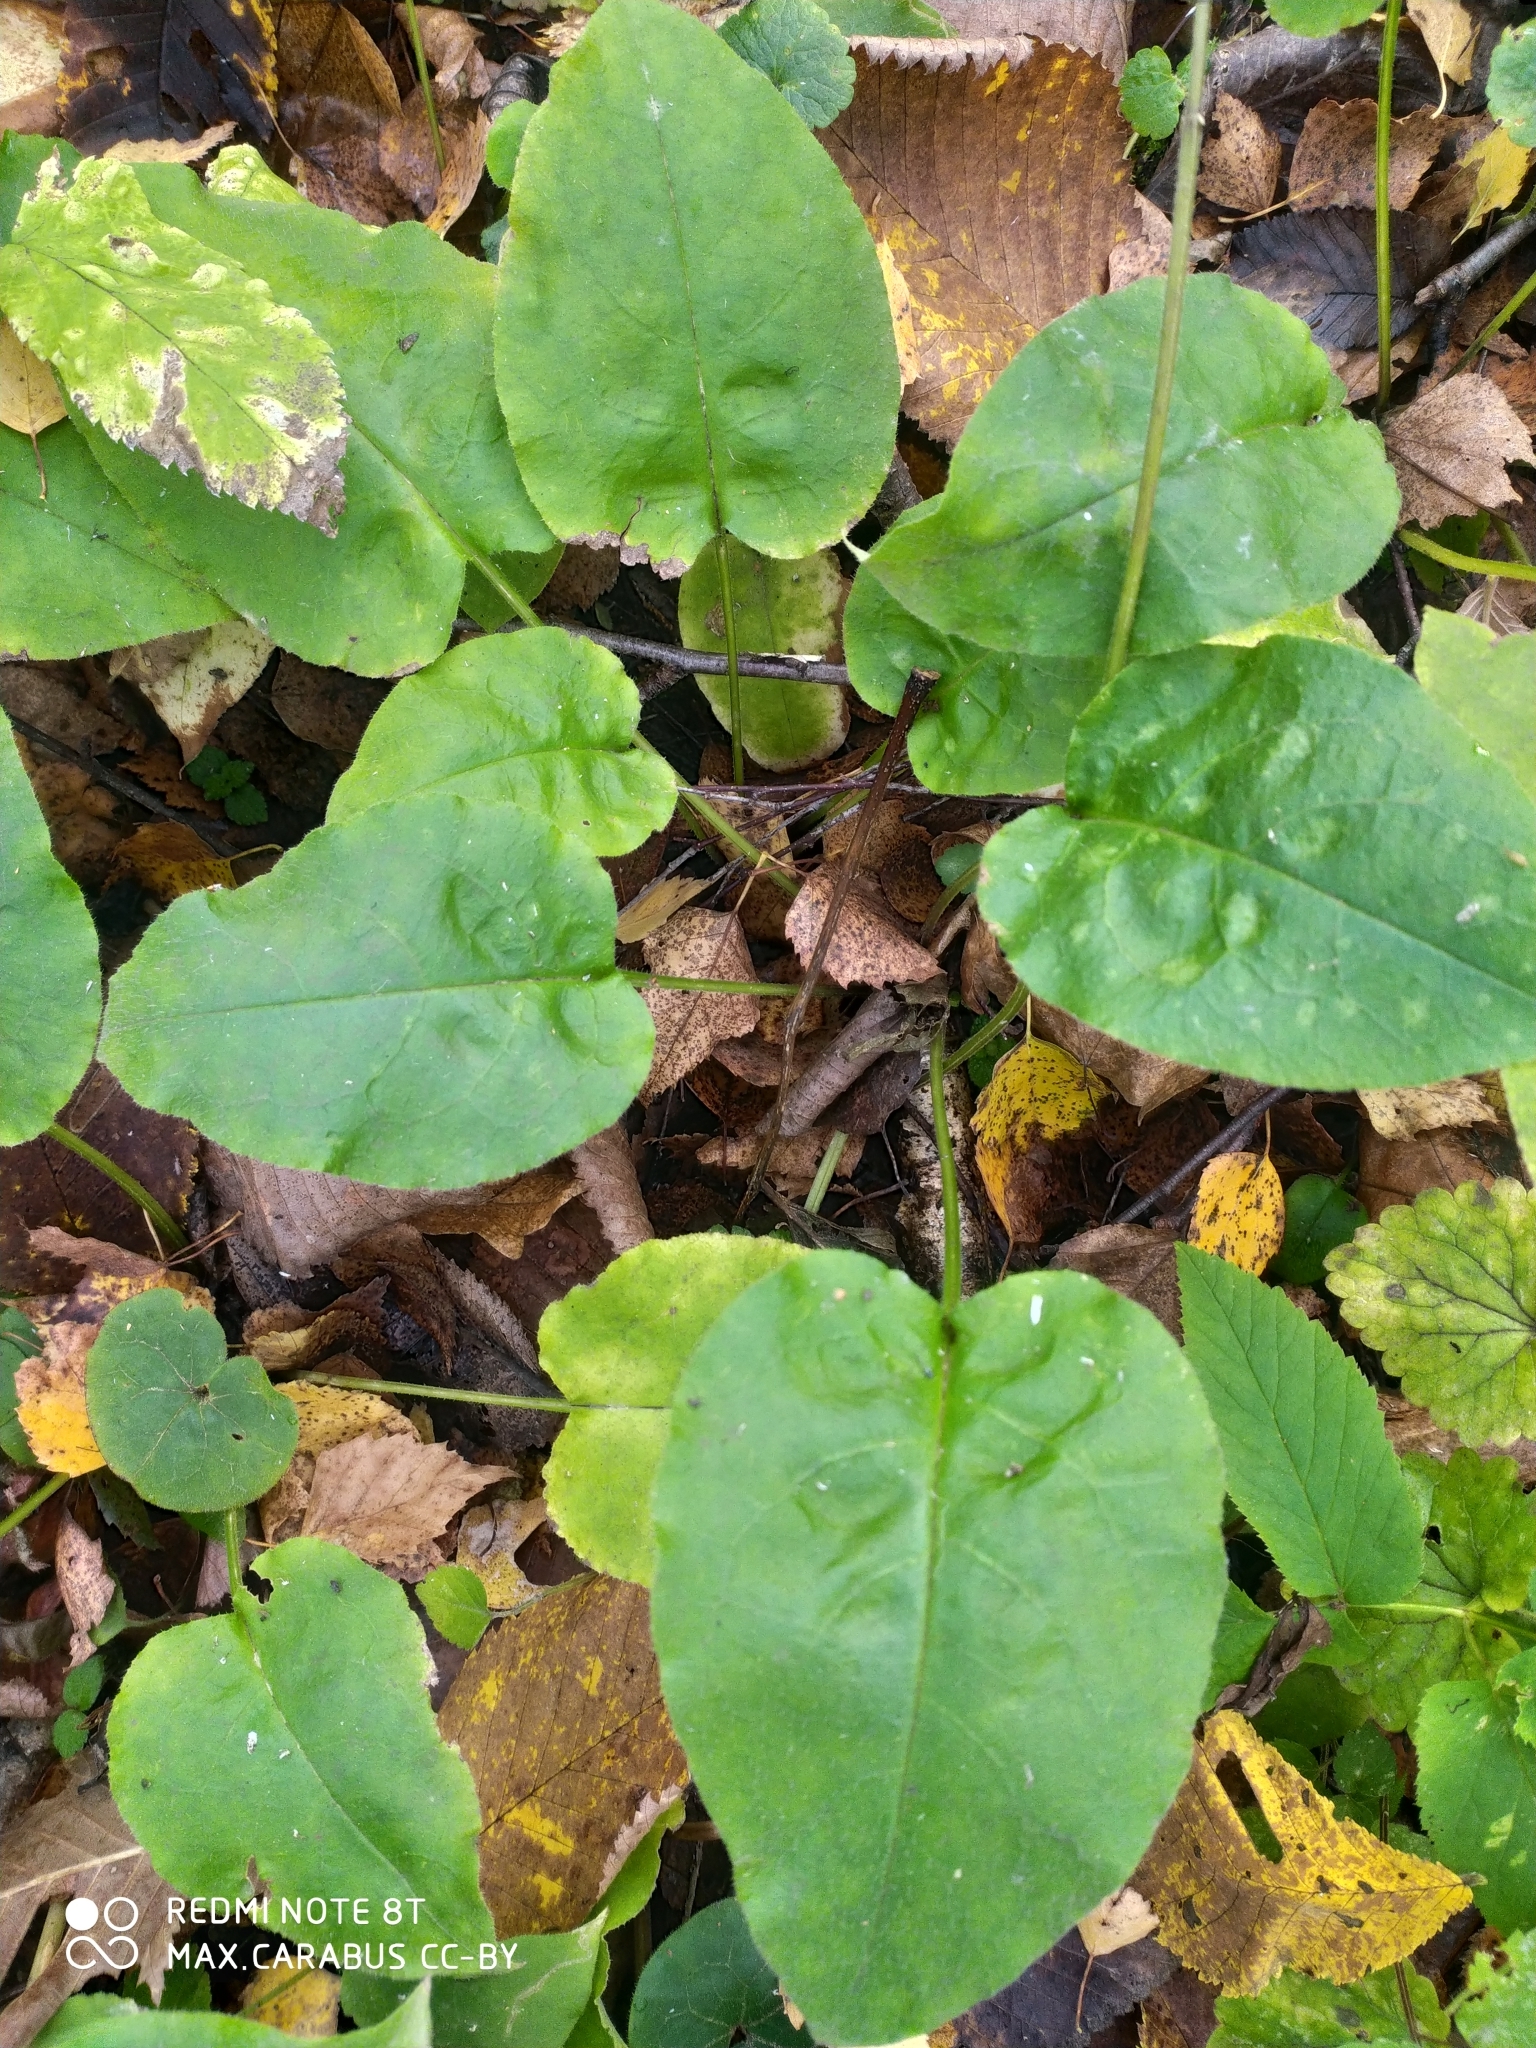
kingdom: Plantae
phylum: Tracheophyta
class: Magnoliopsida
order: Boraginales
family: Boraginaceae
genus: Pulmonaria
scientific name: Pulmonaria obscura
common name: Suffolk lungwort
